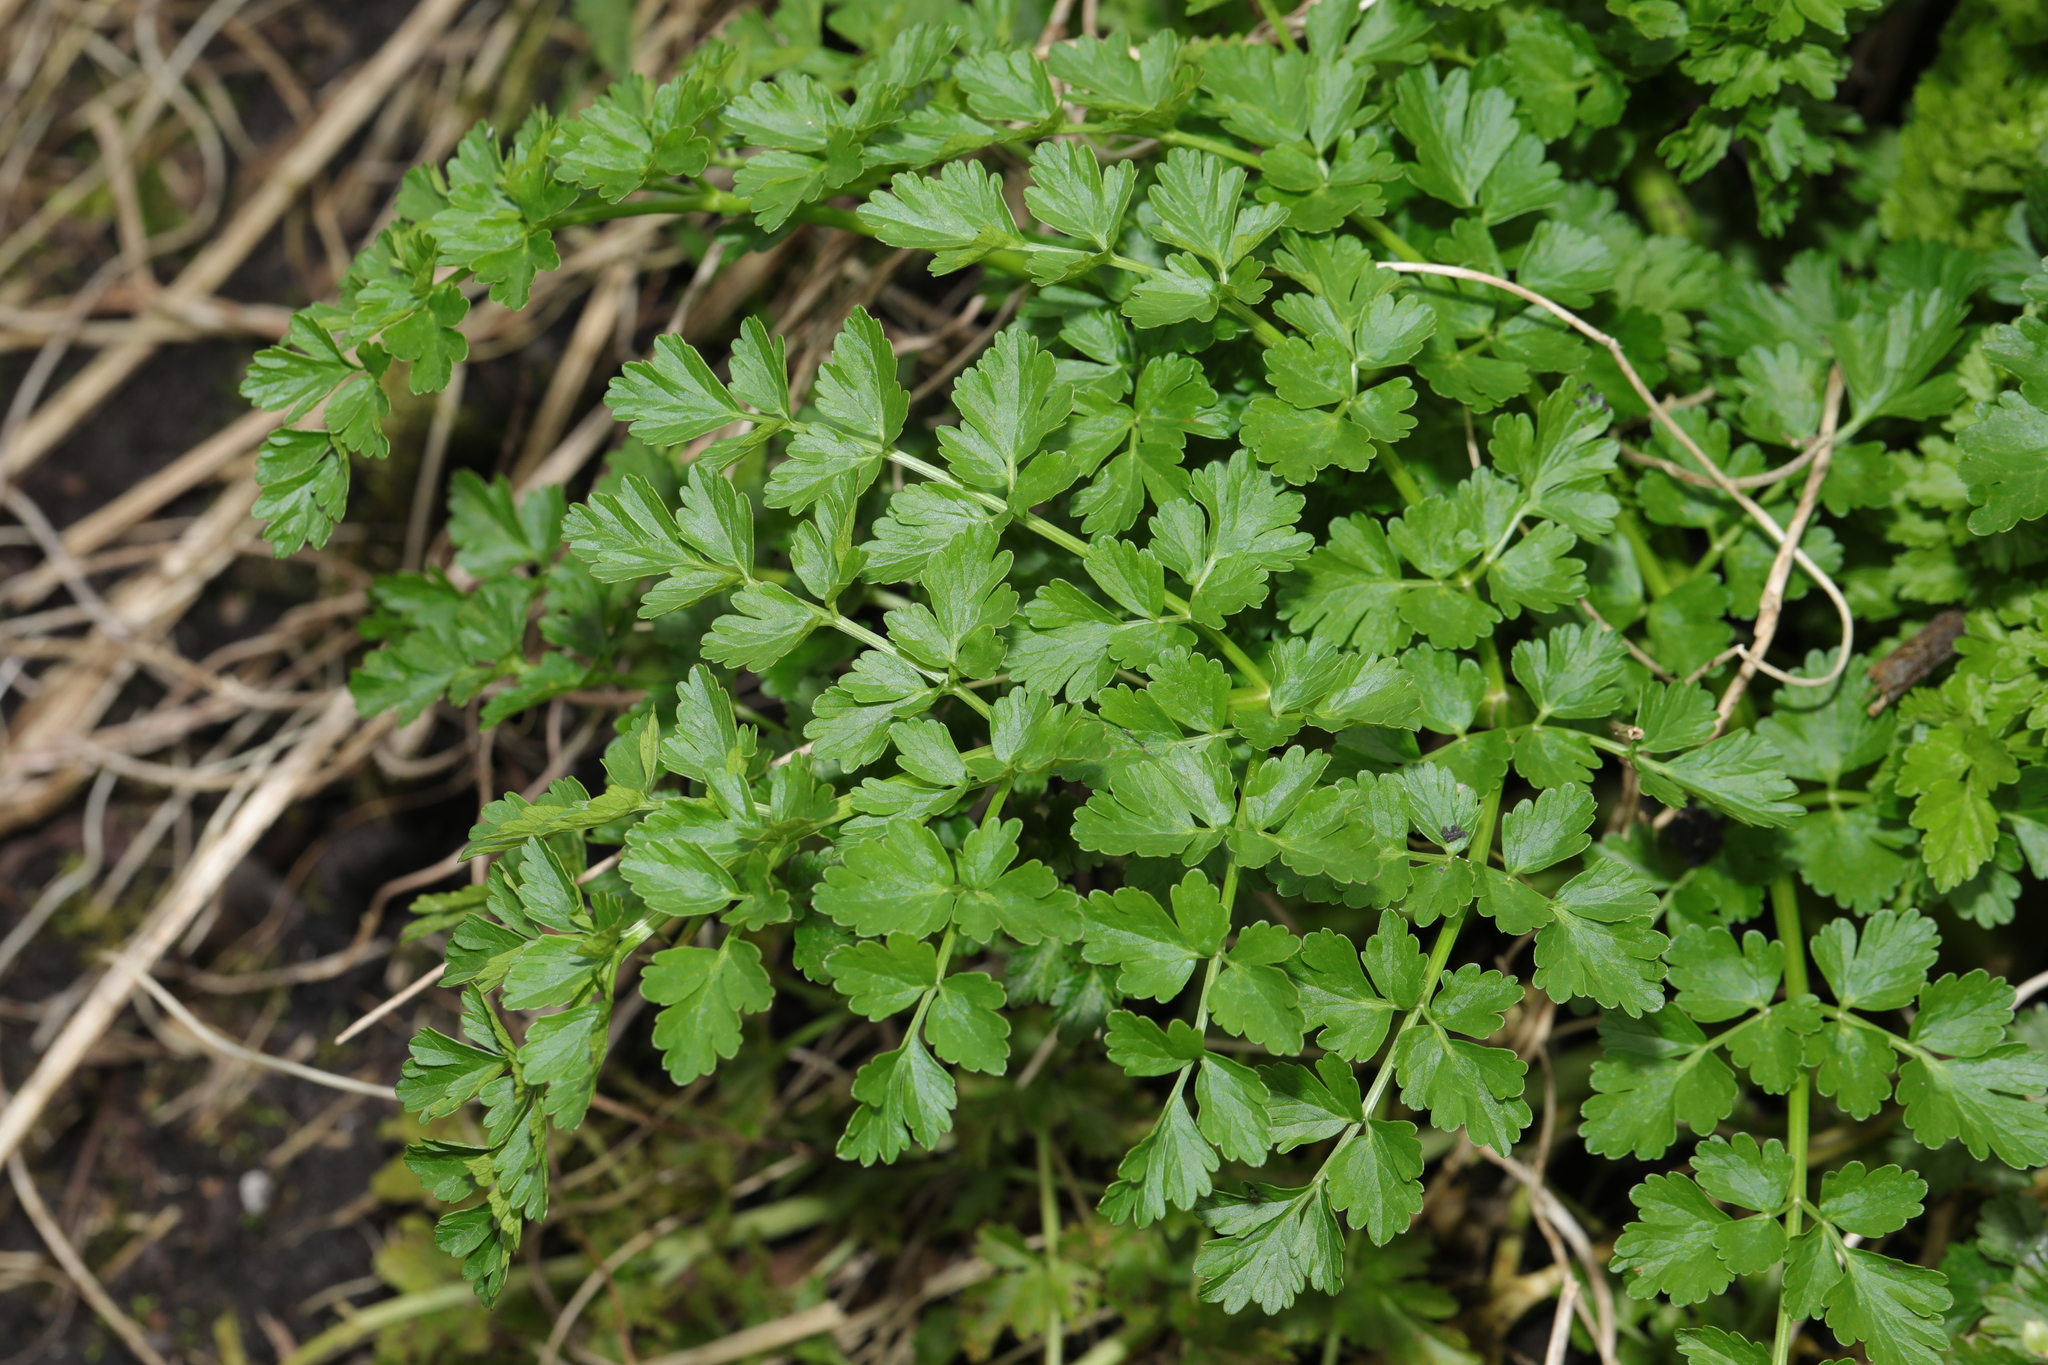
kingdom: Plantae
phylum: Tracheophyta
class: Magnoliopsida
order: Apiales
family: Apiaceae
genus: Oenanthe
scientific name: Oenanthe crocata
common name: Hemlock water-dropwort
